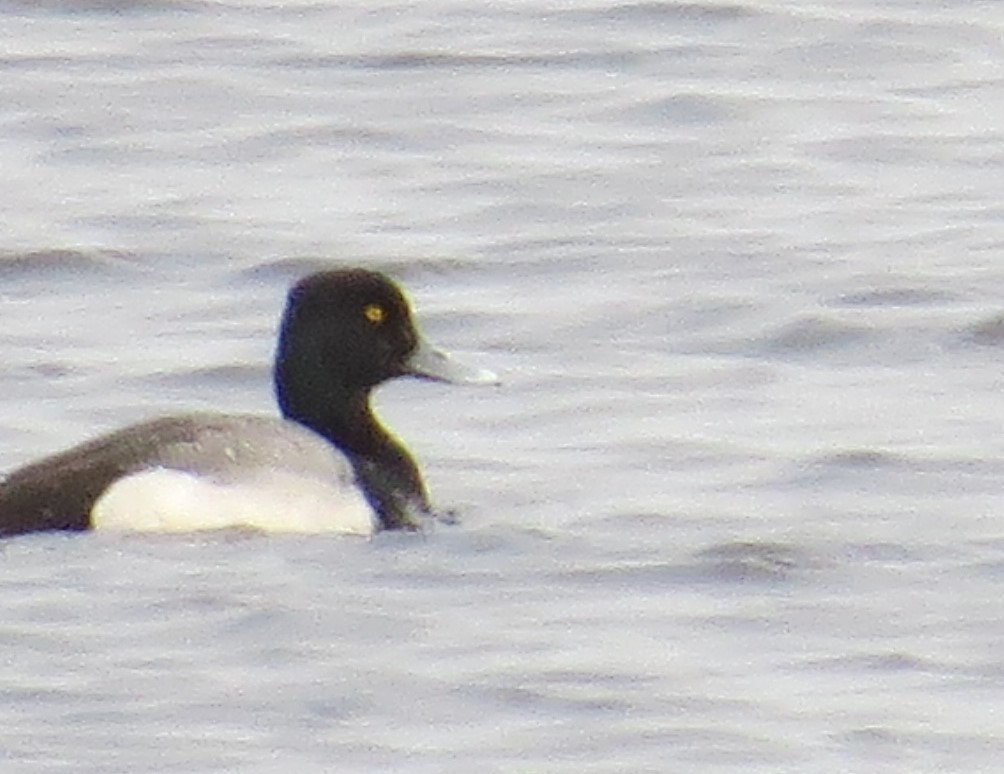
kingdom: Animalia
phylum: Chordata
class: Aves
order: Anseriformes
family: Anatidae
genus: Aythya
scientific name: Aythya affinis
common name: Lesser scaup
